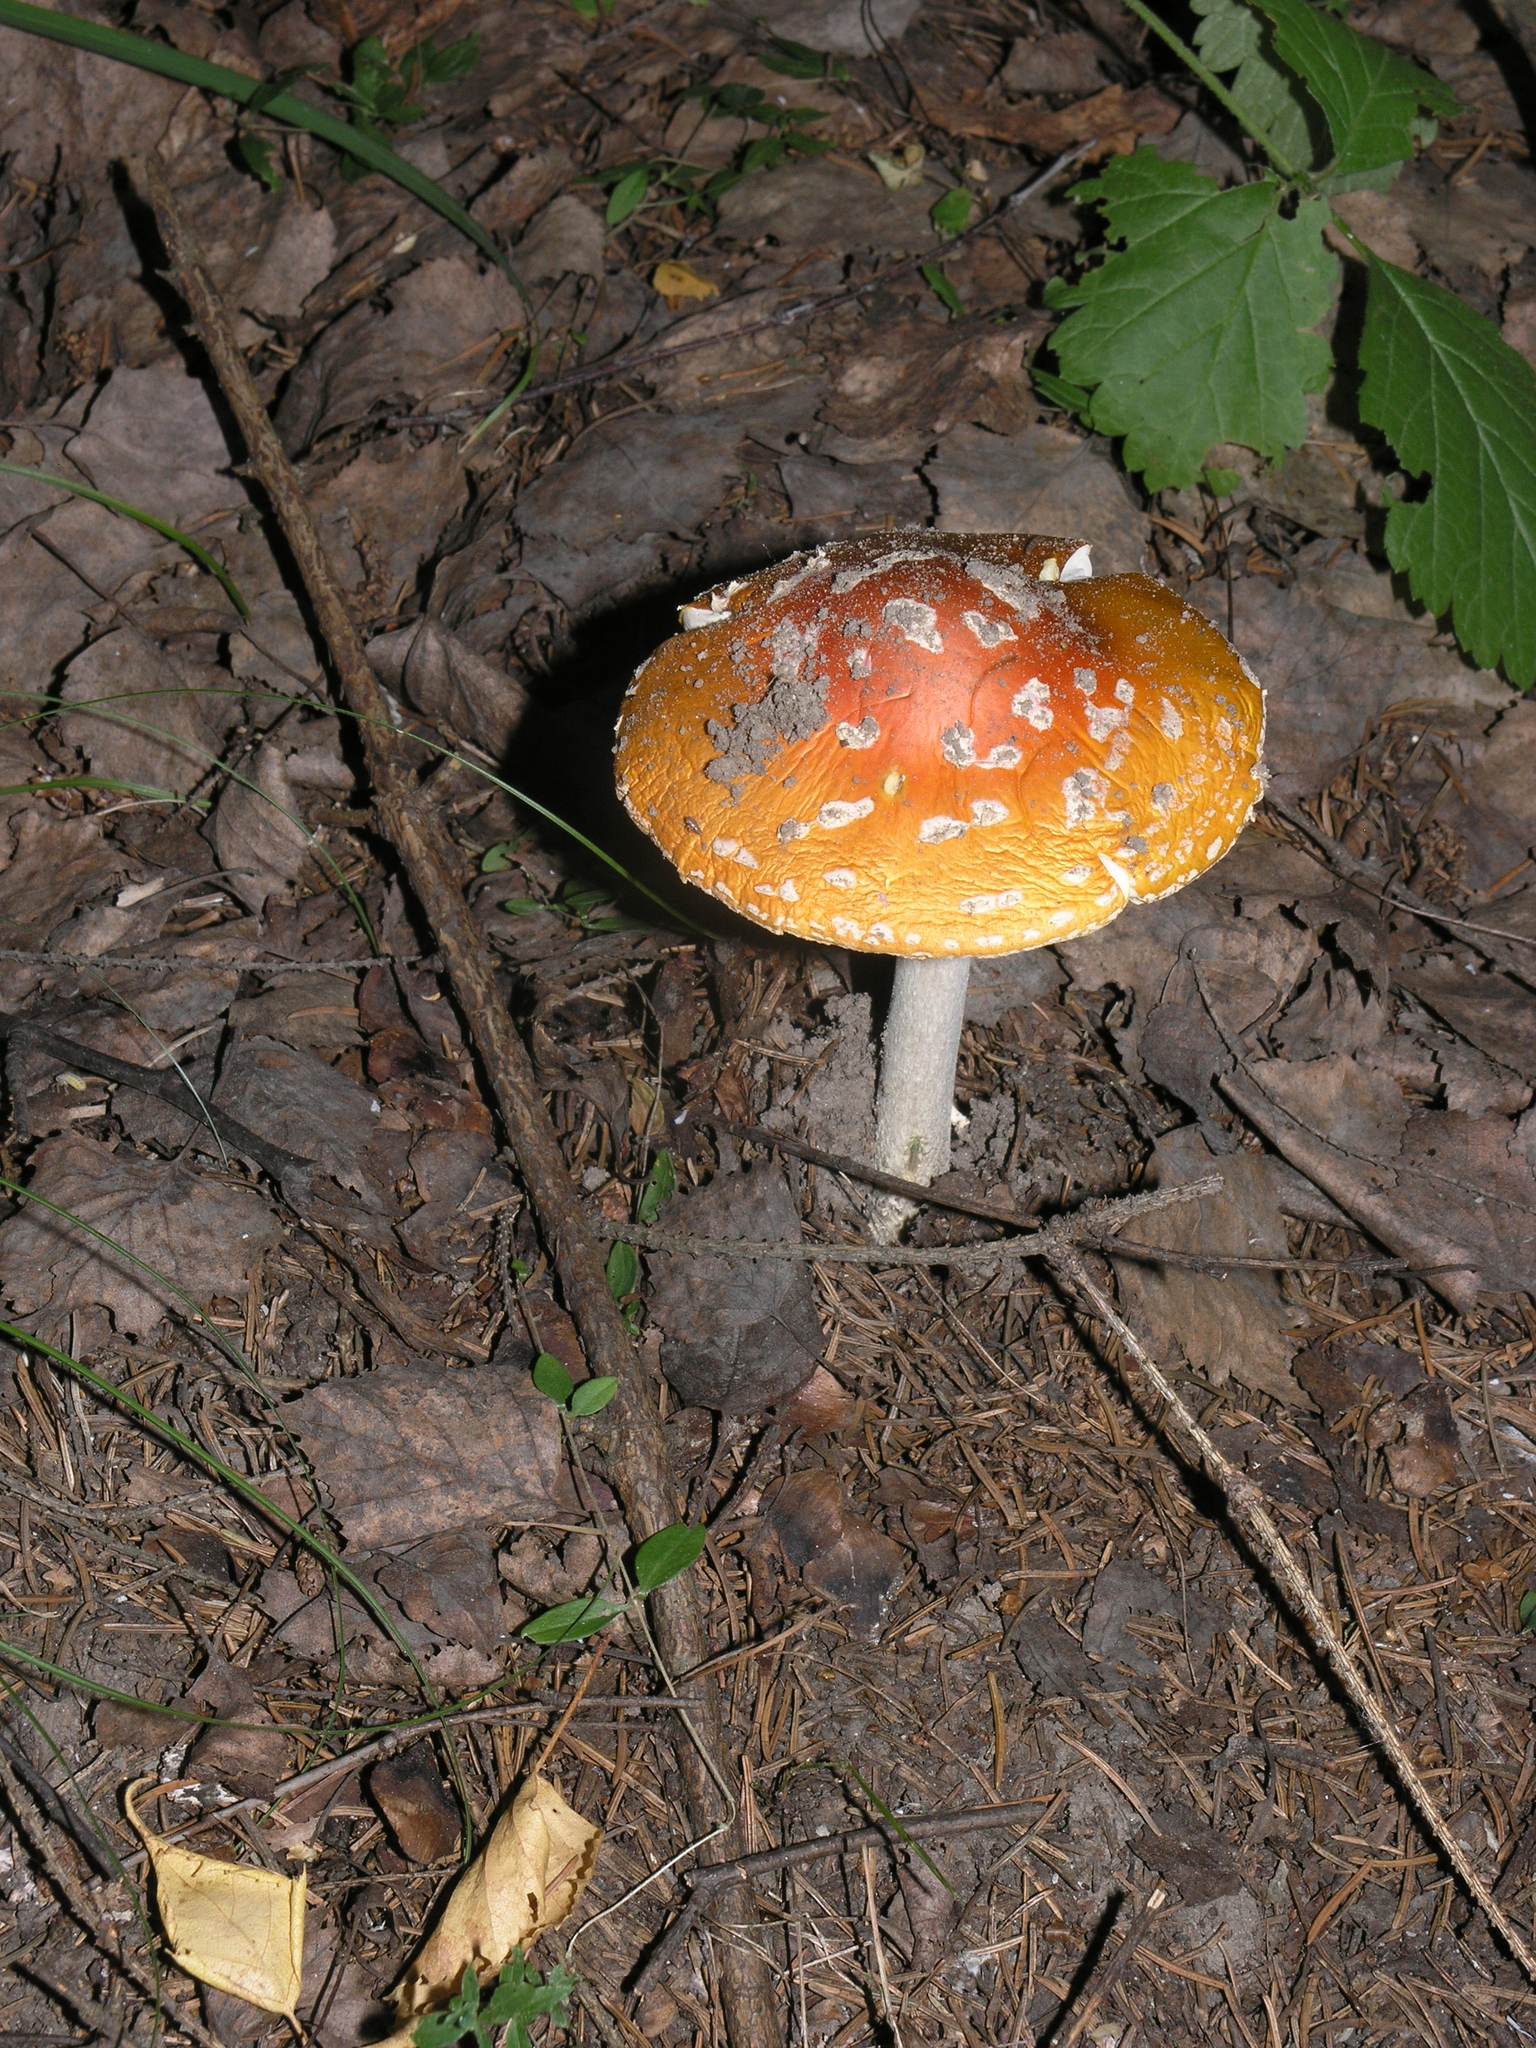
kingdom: Fungi
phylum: Basidiomycota
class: Agaricomycetes
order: Agaricales
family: Amanitaceae
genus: Amanita
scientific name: Amanita muscaria
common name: Fly agaric
